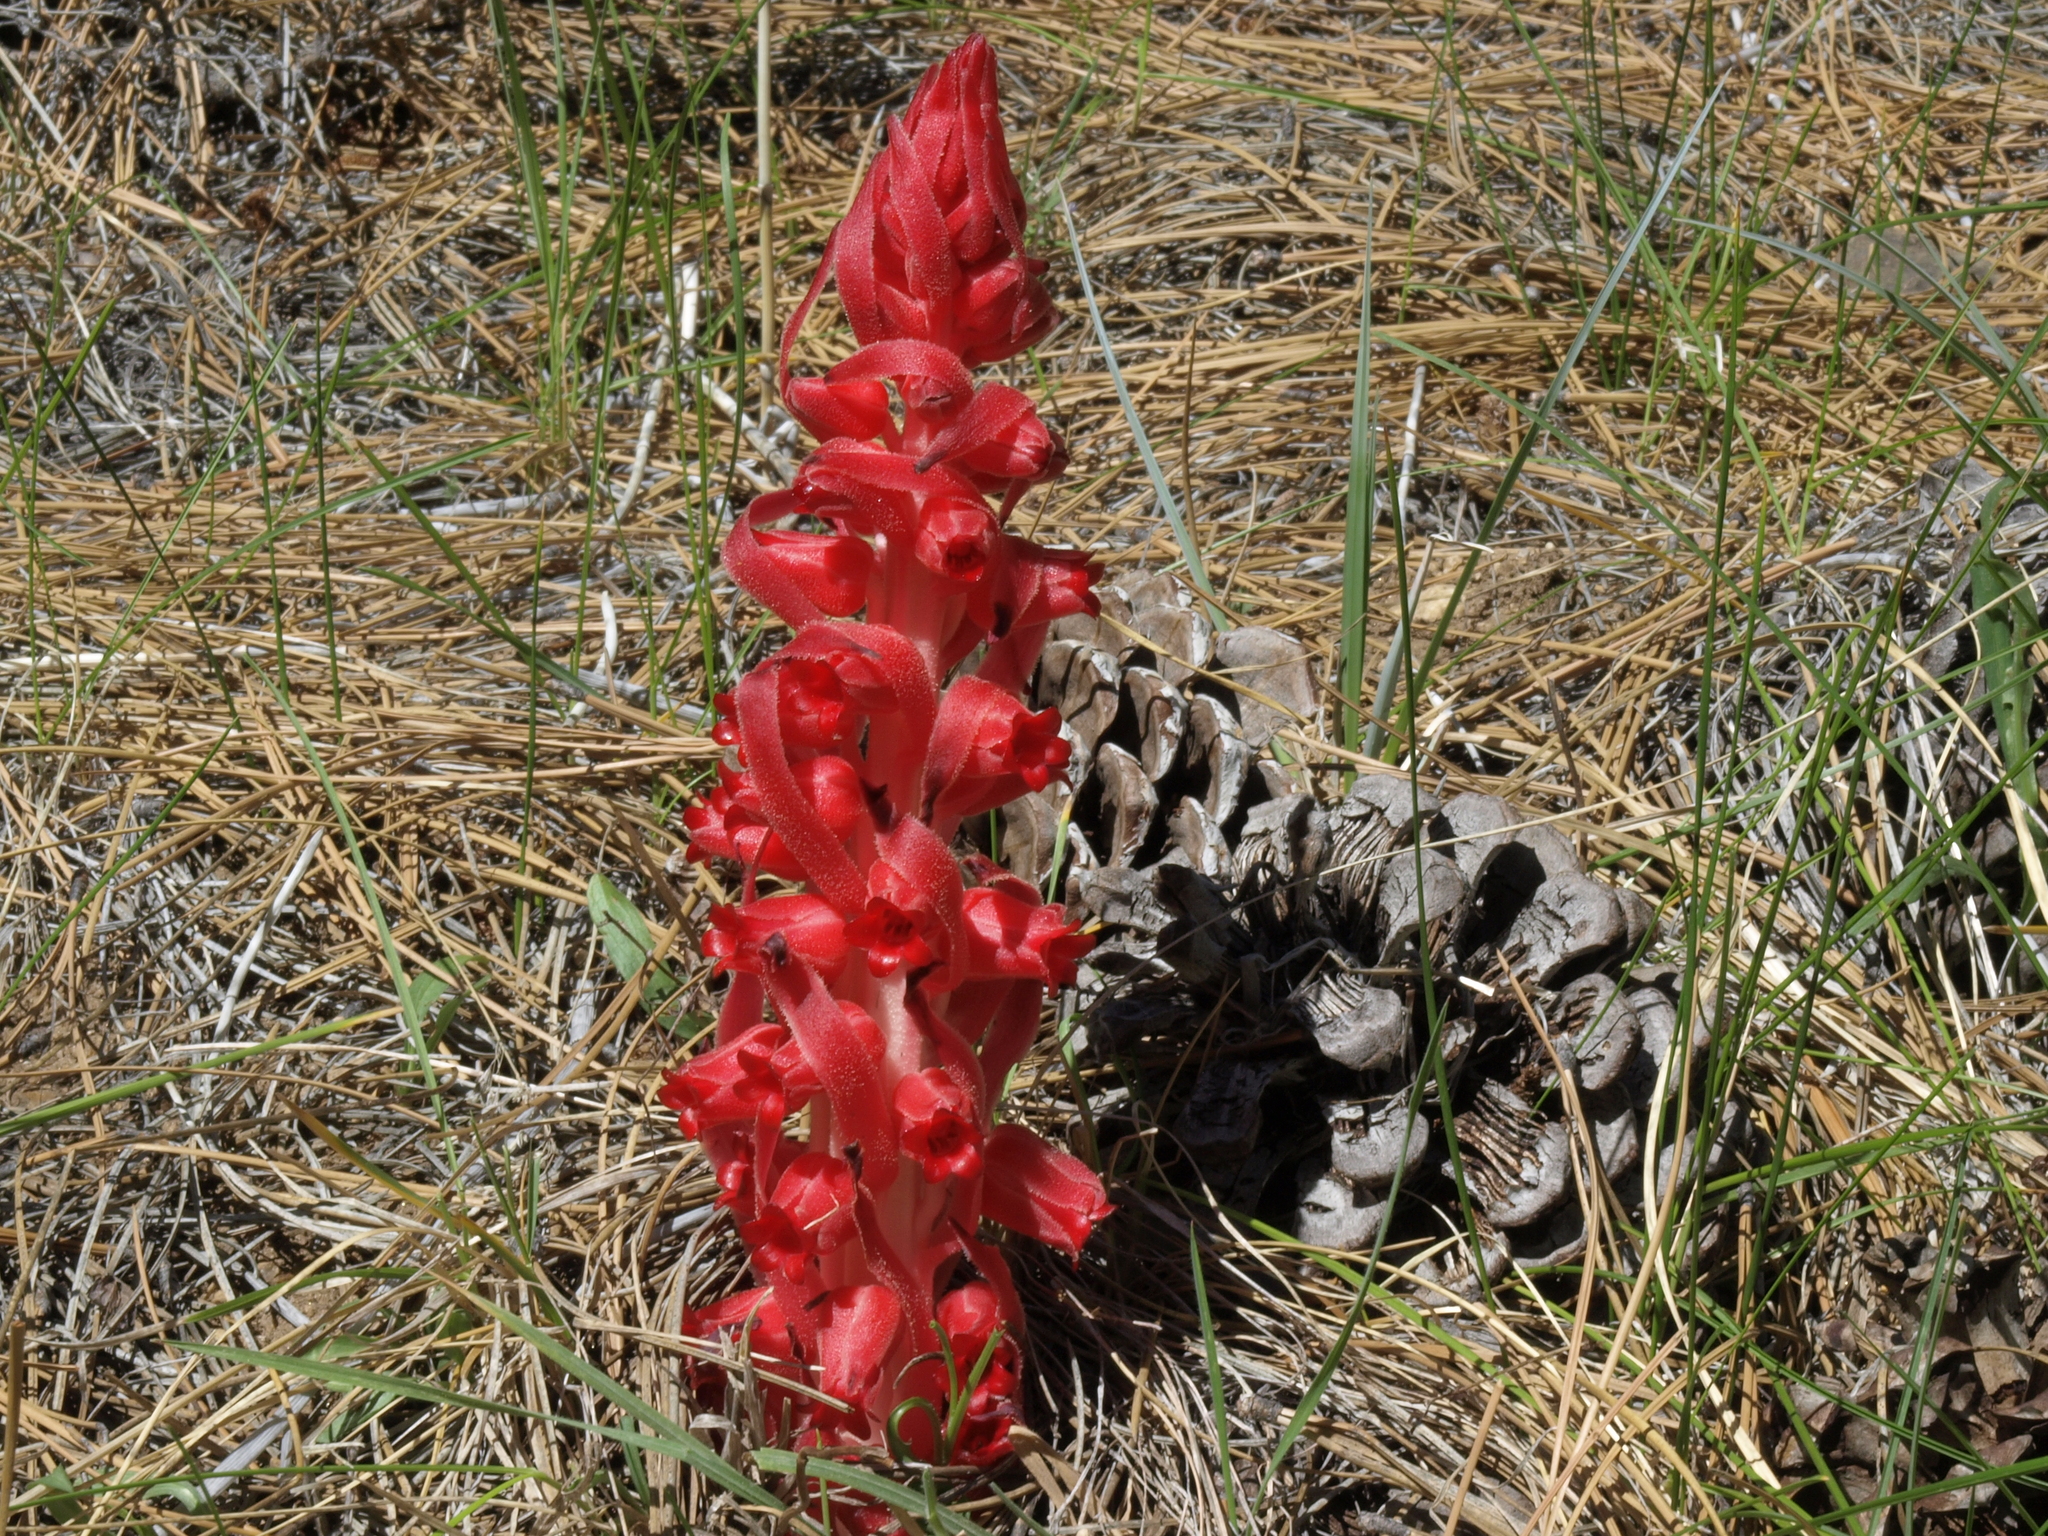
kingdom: Plantae
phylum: Tracheophyta
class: Magnoliopsida
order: Ericales
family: Ericaceae
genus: Sarcodes
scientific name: Sarcodes sanguinea
